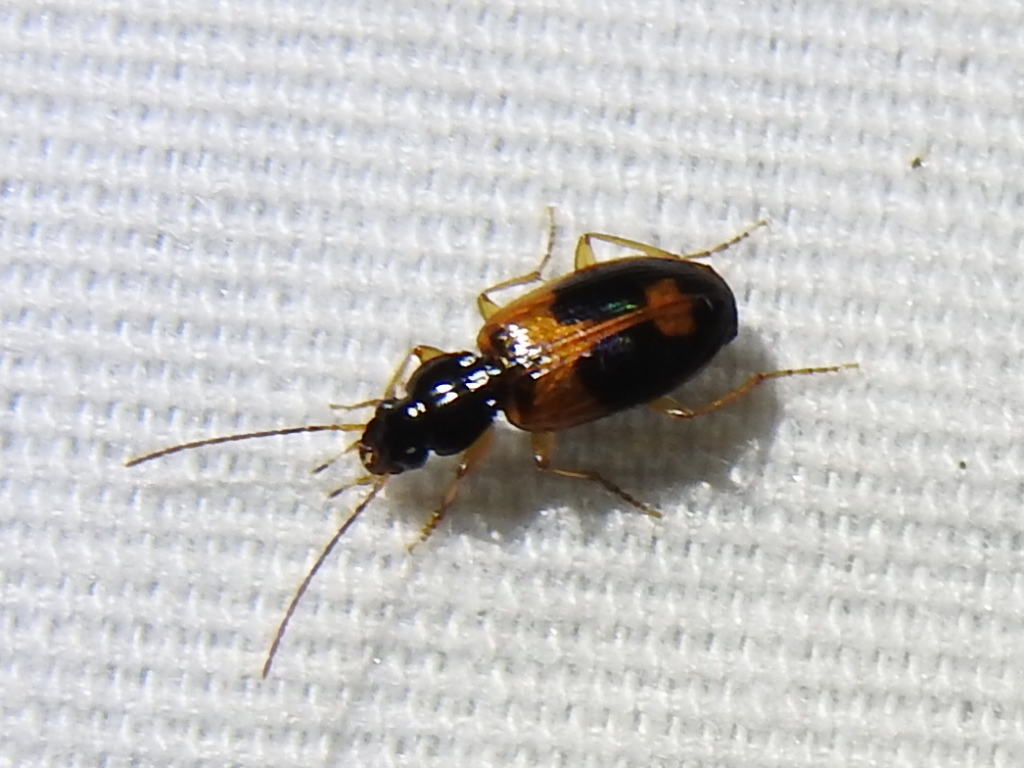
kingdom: Animalia
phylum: Arthropoda
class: Insecta
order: Coleoptera
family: Carabidae
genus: Badister
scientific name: Badister elegans
